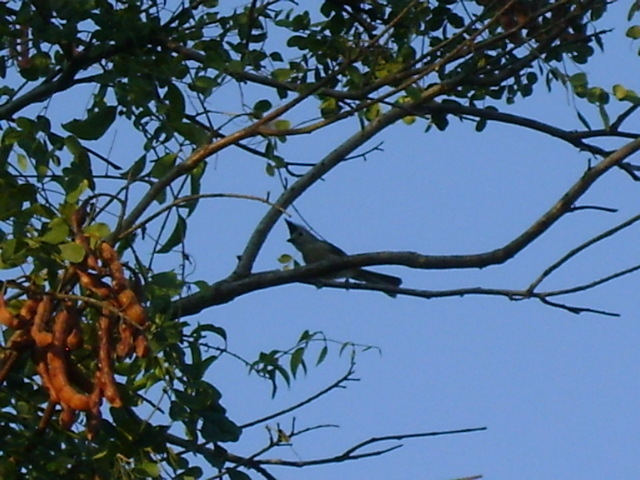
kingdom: Animalia
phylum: Chordata
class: Aves
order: Passeriformes
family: Paridae
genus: Baeolophus
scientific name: Baeolophus atricristatus
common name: Black-crested titmouse
